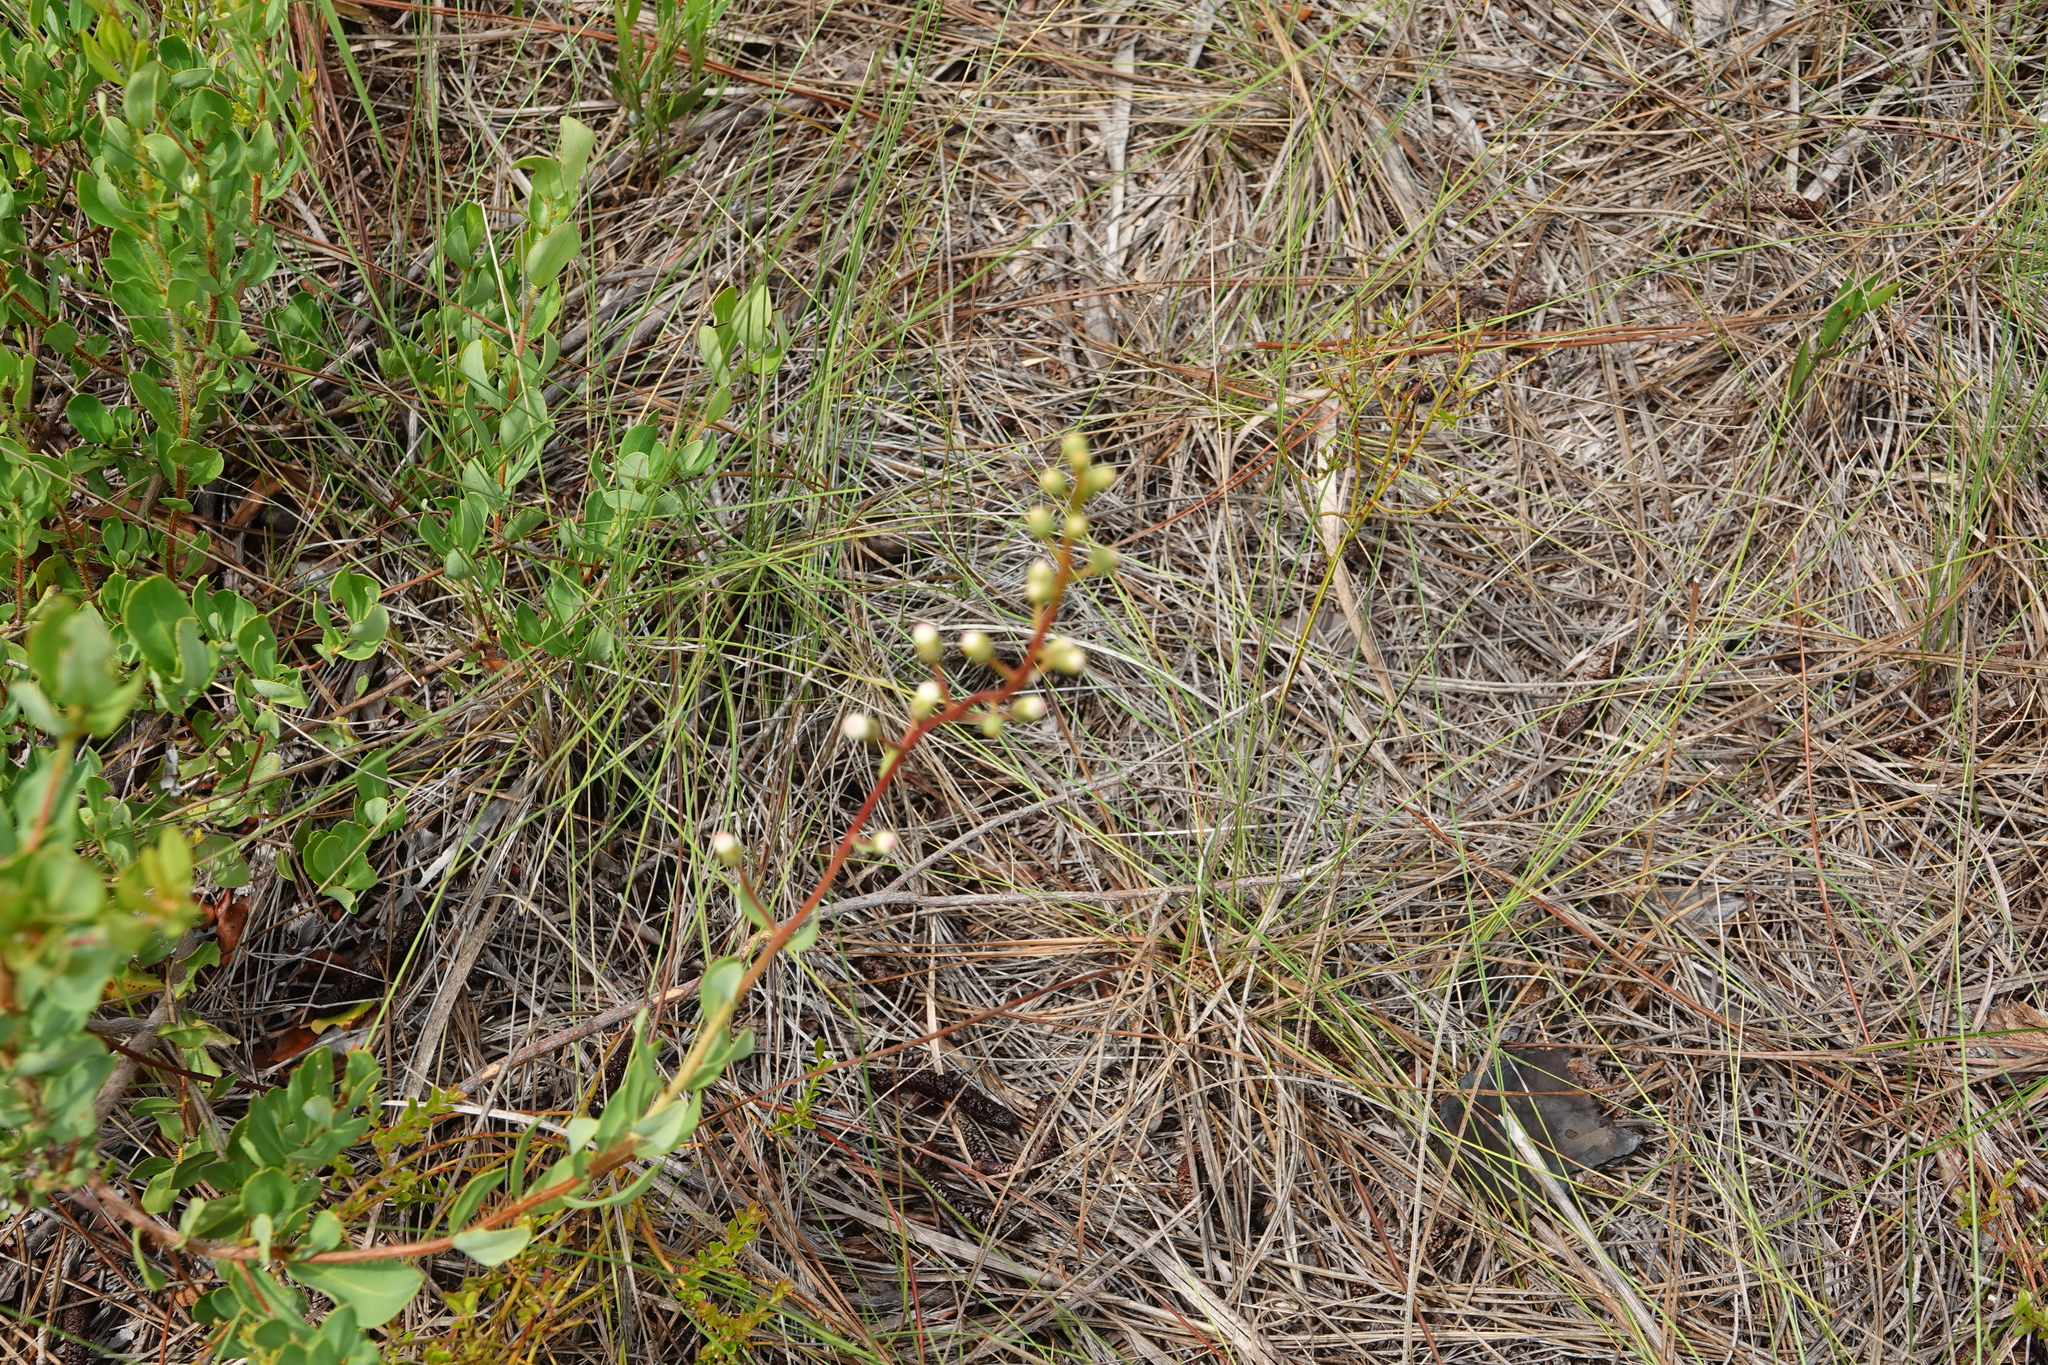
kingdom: Plantae
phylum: Tracheophyta
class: Magnoliopsida
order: Ericales
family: Ericaceae
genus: Bejaria
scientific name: Bejaria racemosa
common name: Tarflower
